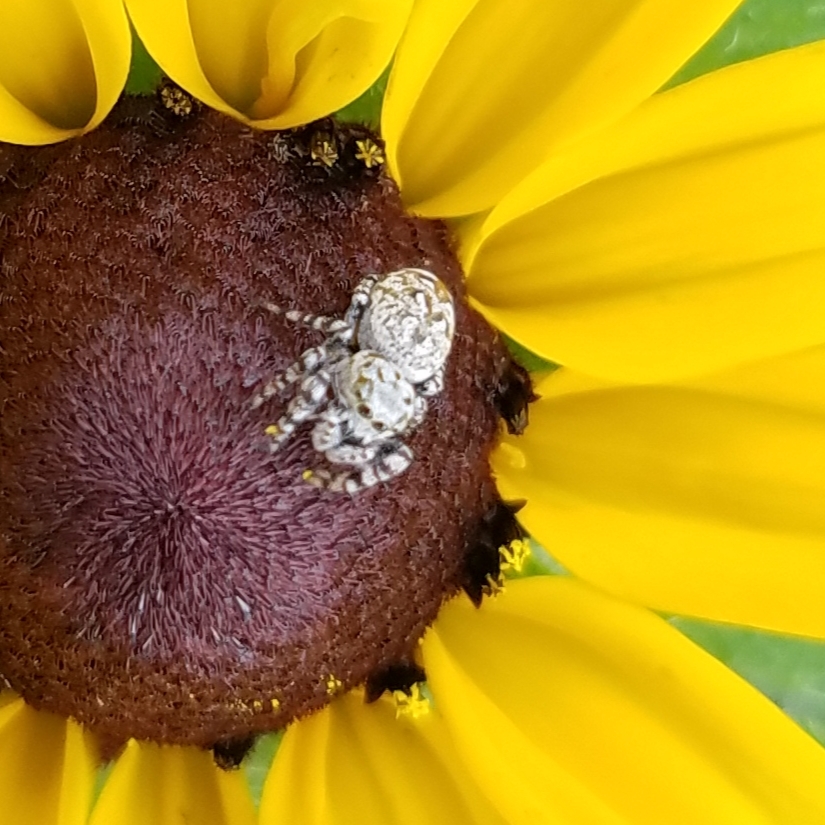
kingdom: Animalia
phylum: Arthropoda
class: Arachnida
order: Araneae
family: Salticidae
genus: Pelegrina
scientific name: Pelegrina galathea
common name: Jumping spiders
